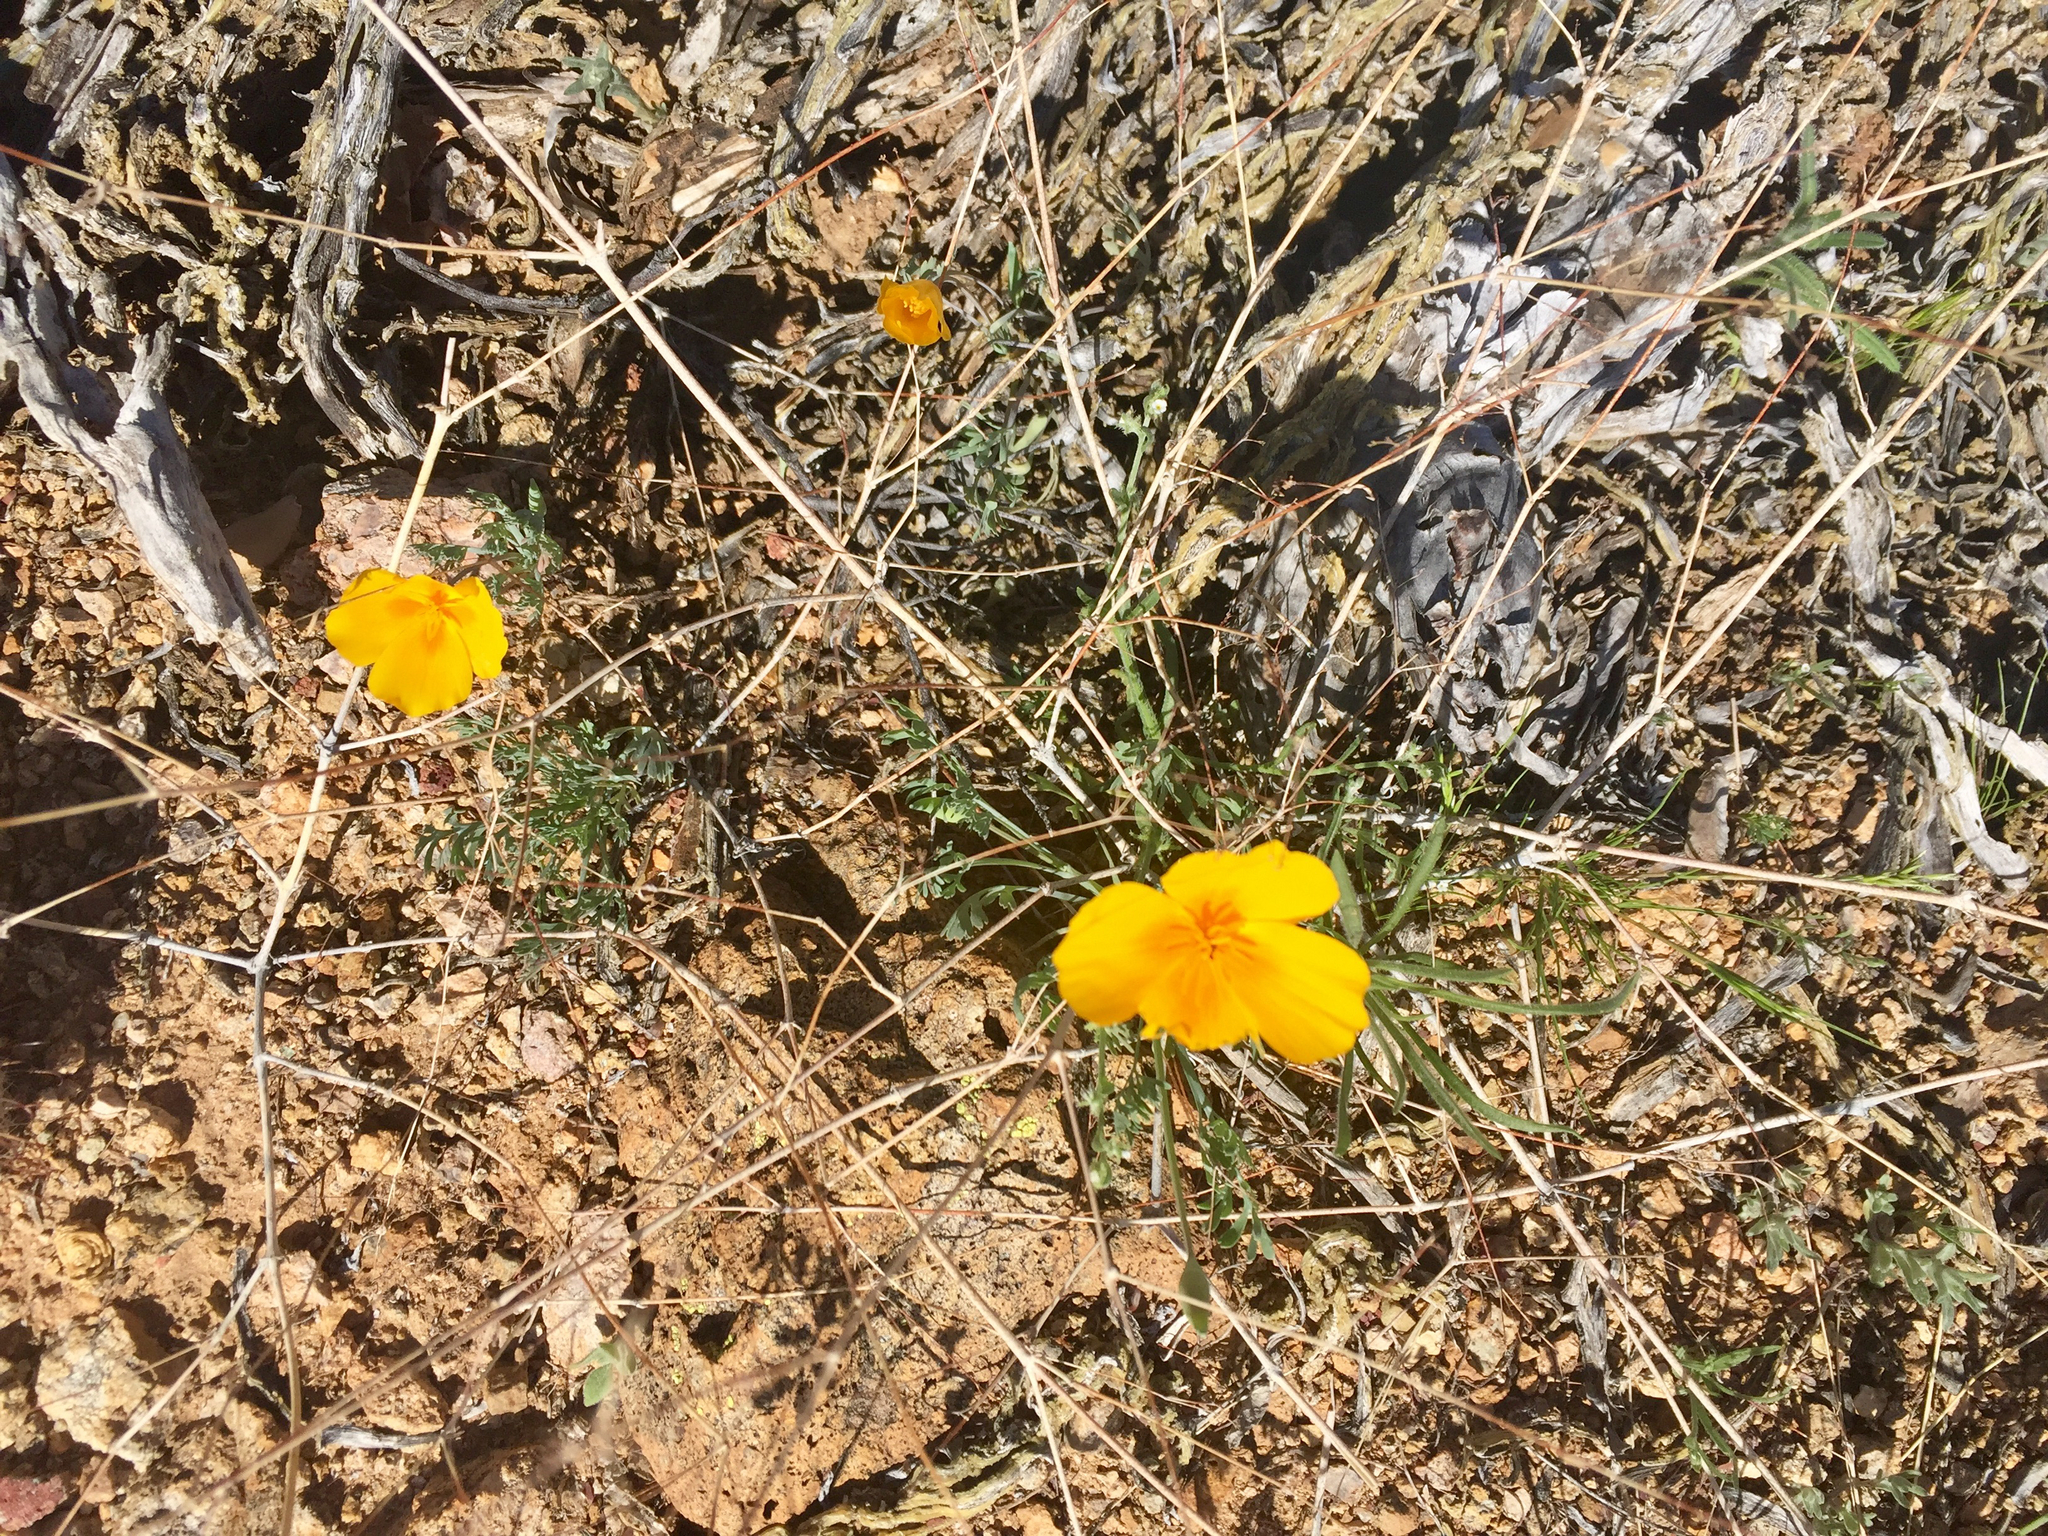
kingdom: Plantae
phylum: Tracheophyta
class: Magnoliopsida
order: Ranunculales
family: Papaveraceae
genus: Eschscholzia
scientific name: Eschscholzia californica
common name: California poppy
